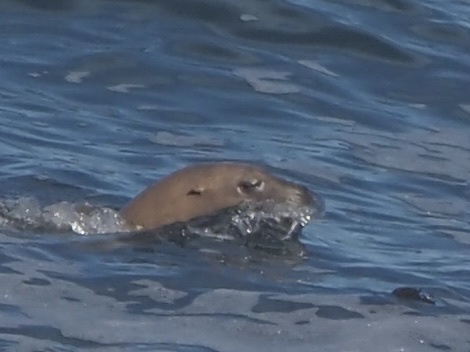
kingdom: Animalia
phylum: Chordata
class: Mammalia
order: Carnivora
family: Otariidae
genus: Eumetopias
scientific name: Eumetopias jubatus
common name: Steller sea lion
